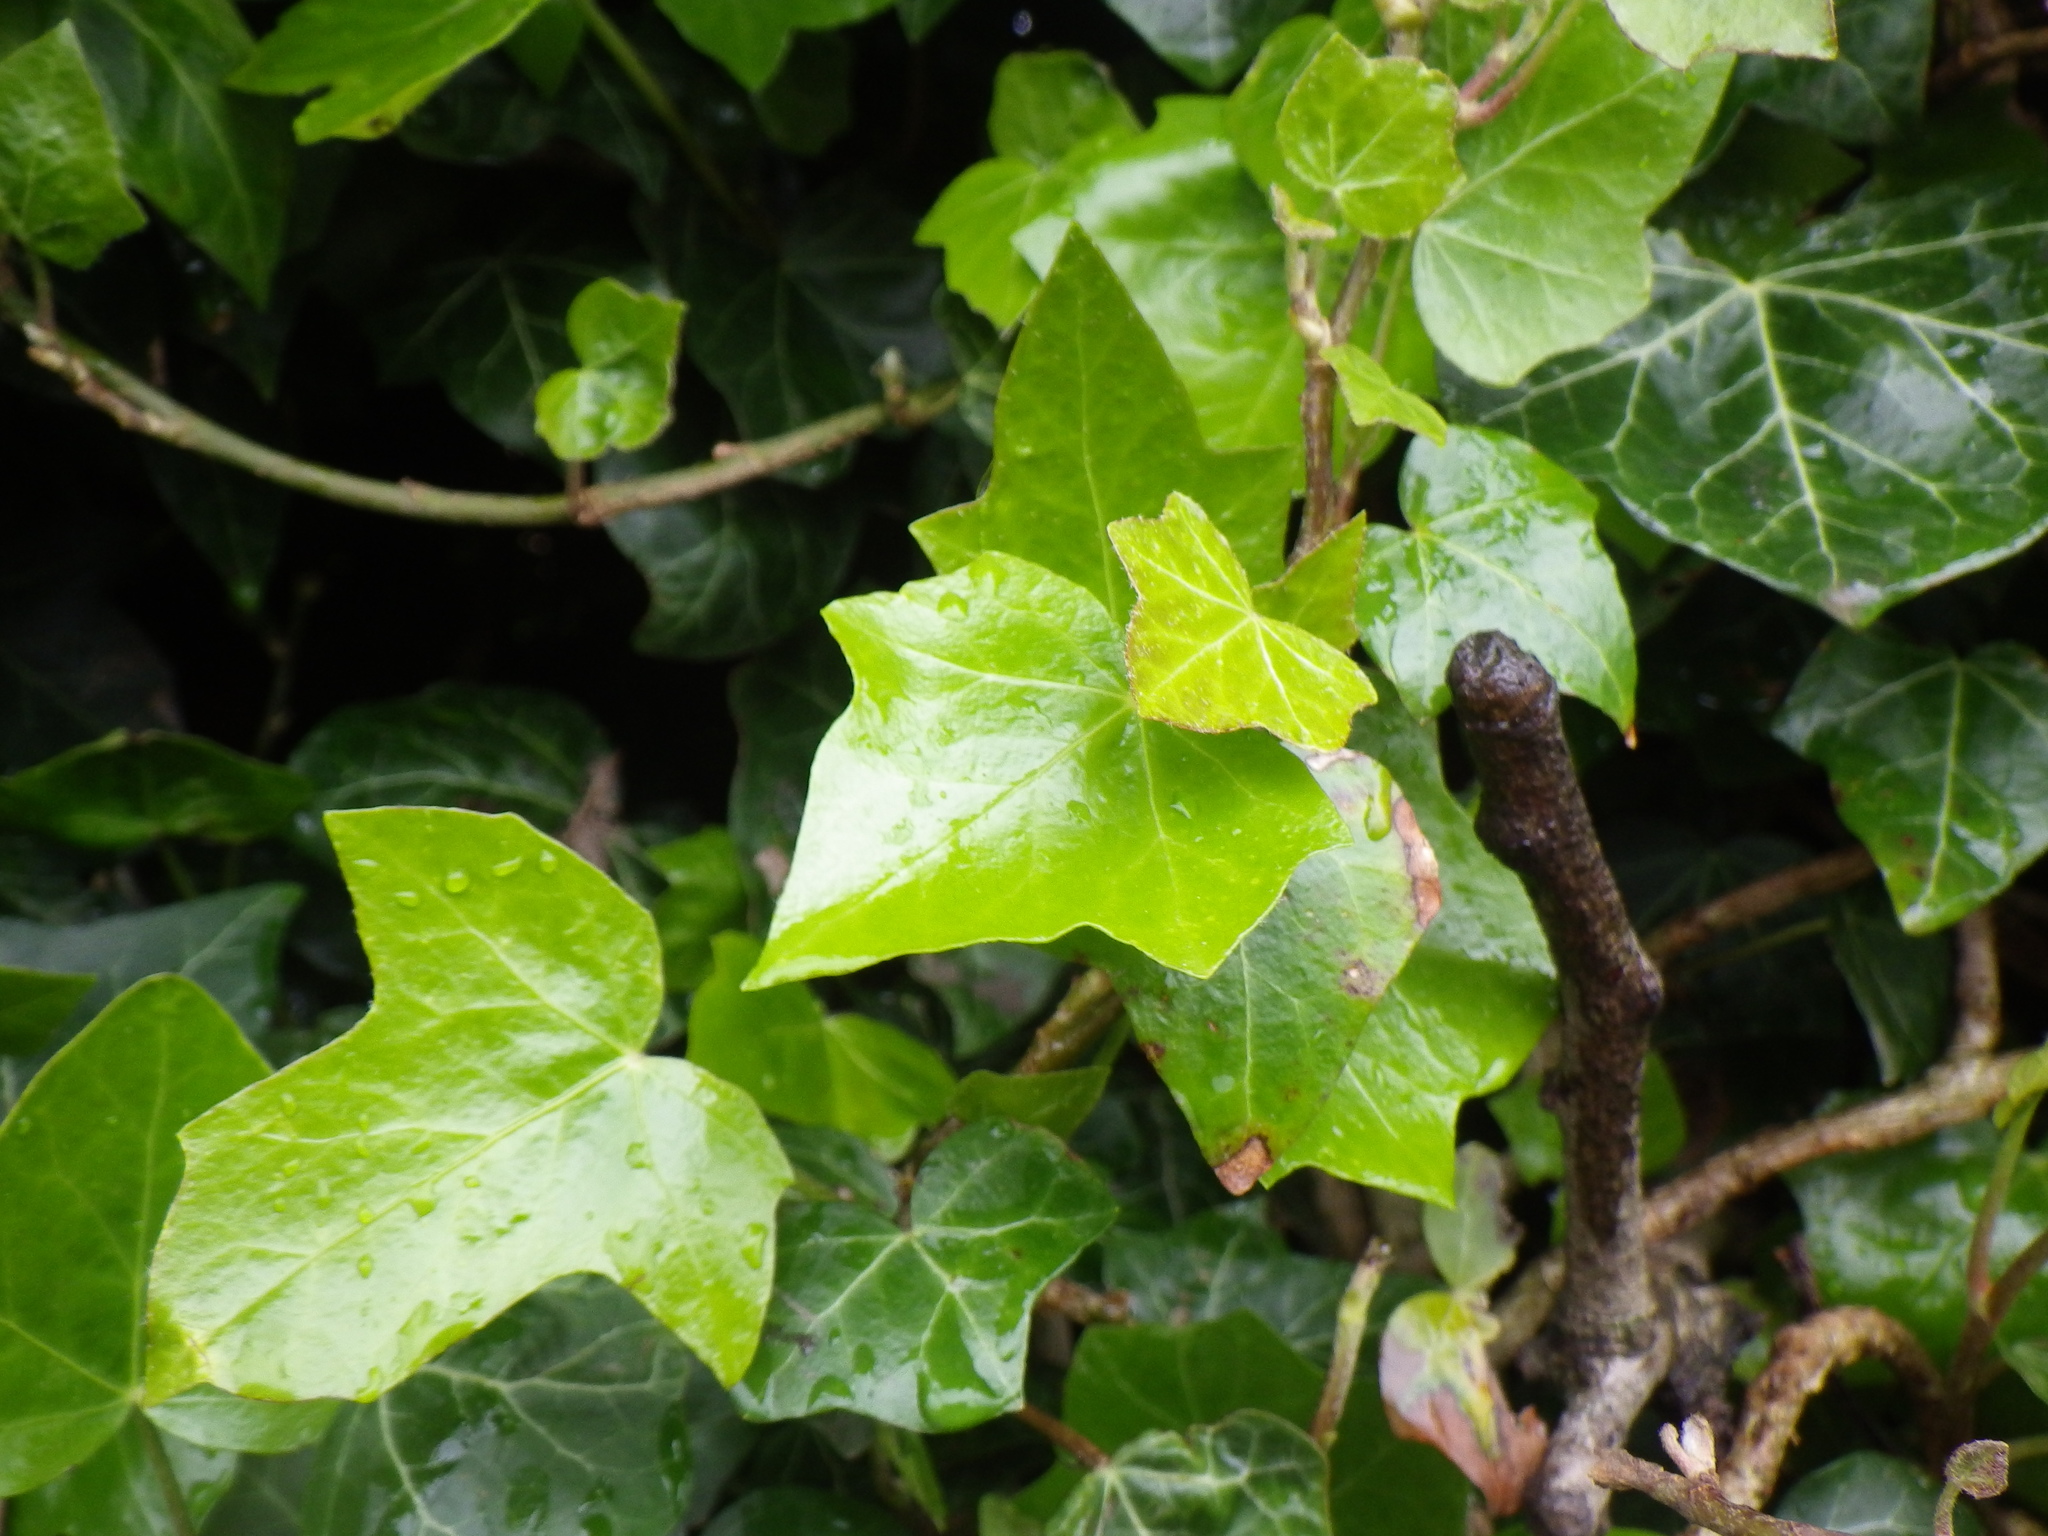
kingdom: Plantae
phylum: Tracheophyta
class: Magnoliopsida
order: Apiales
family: Araliaceae
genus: Hedera
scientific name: Hedera helix
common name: Ivy
